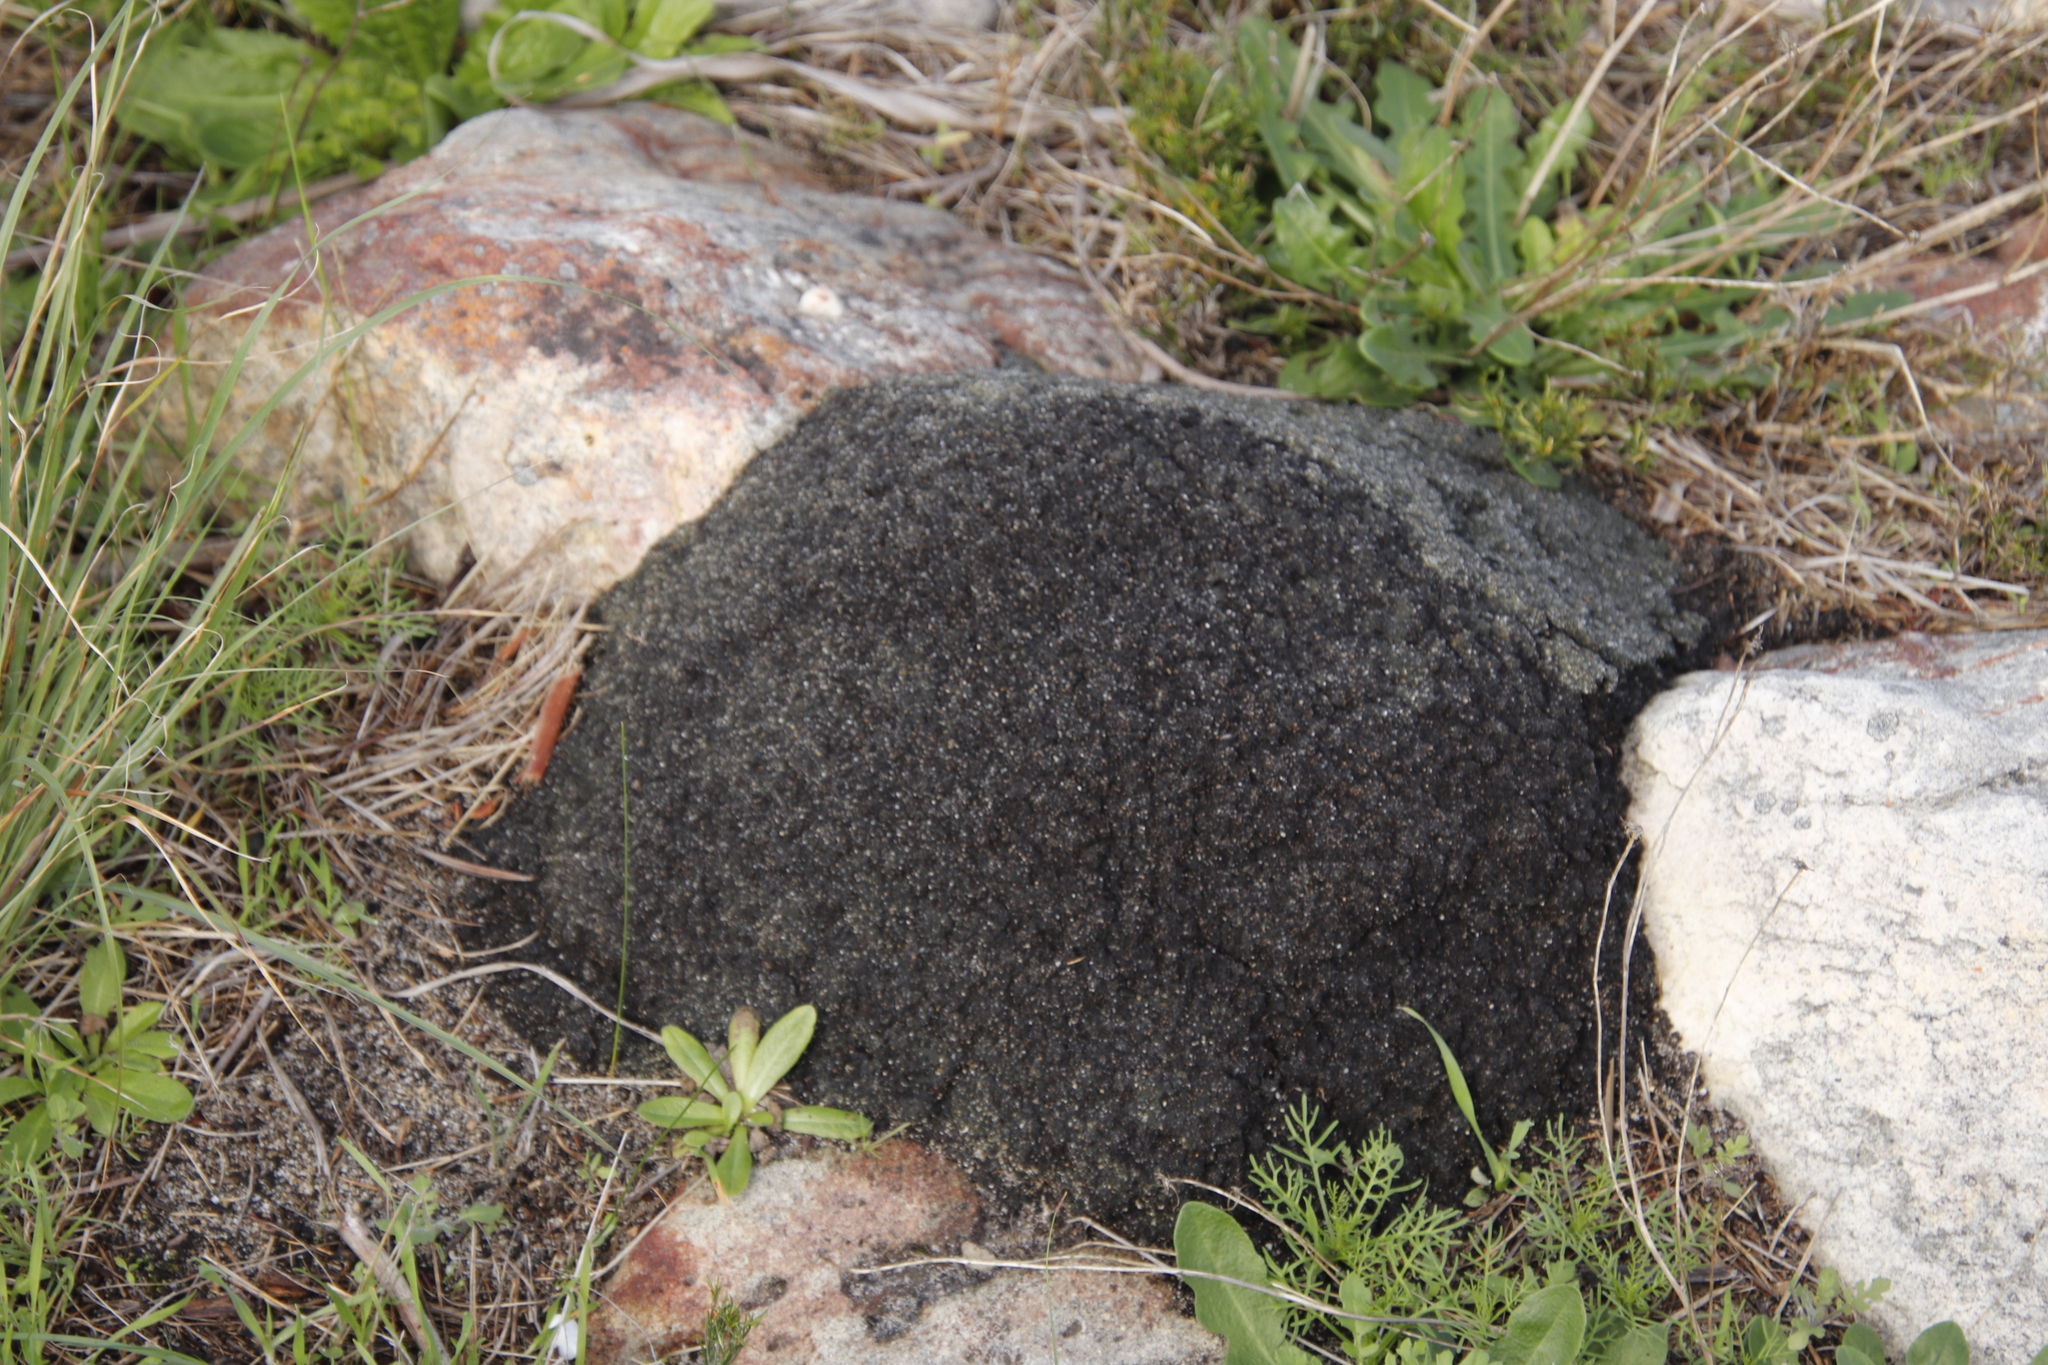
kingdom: Animalia
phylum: Arthropoda
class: Insecta
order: Blattodea
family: Termitidae
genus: Amitermes
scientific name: Amitermes hastatus
